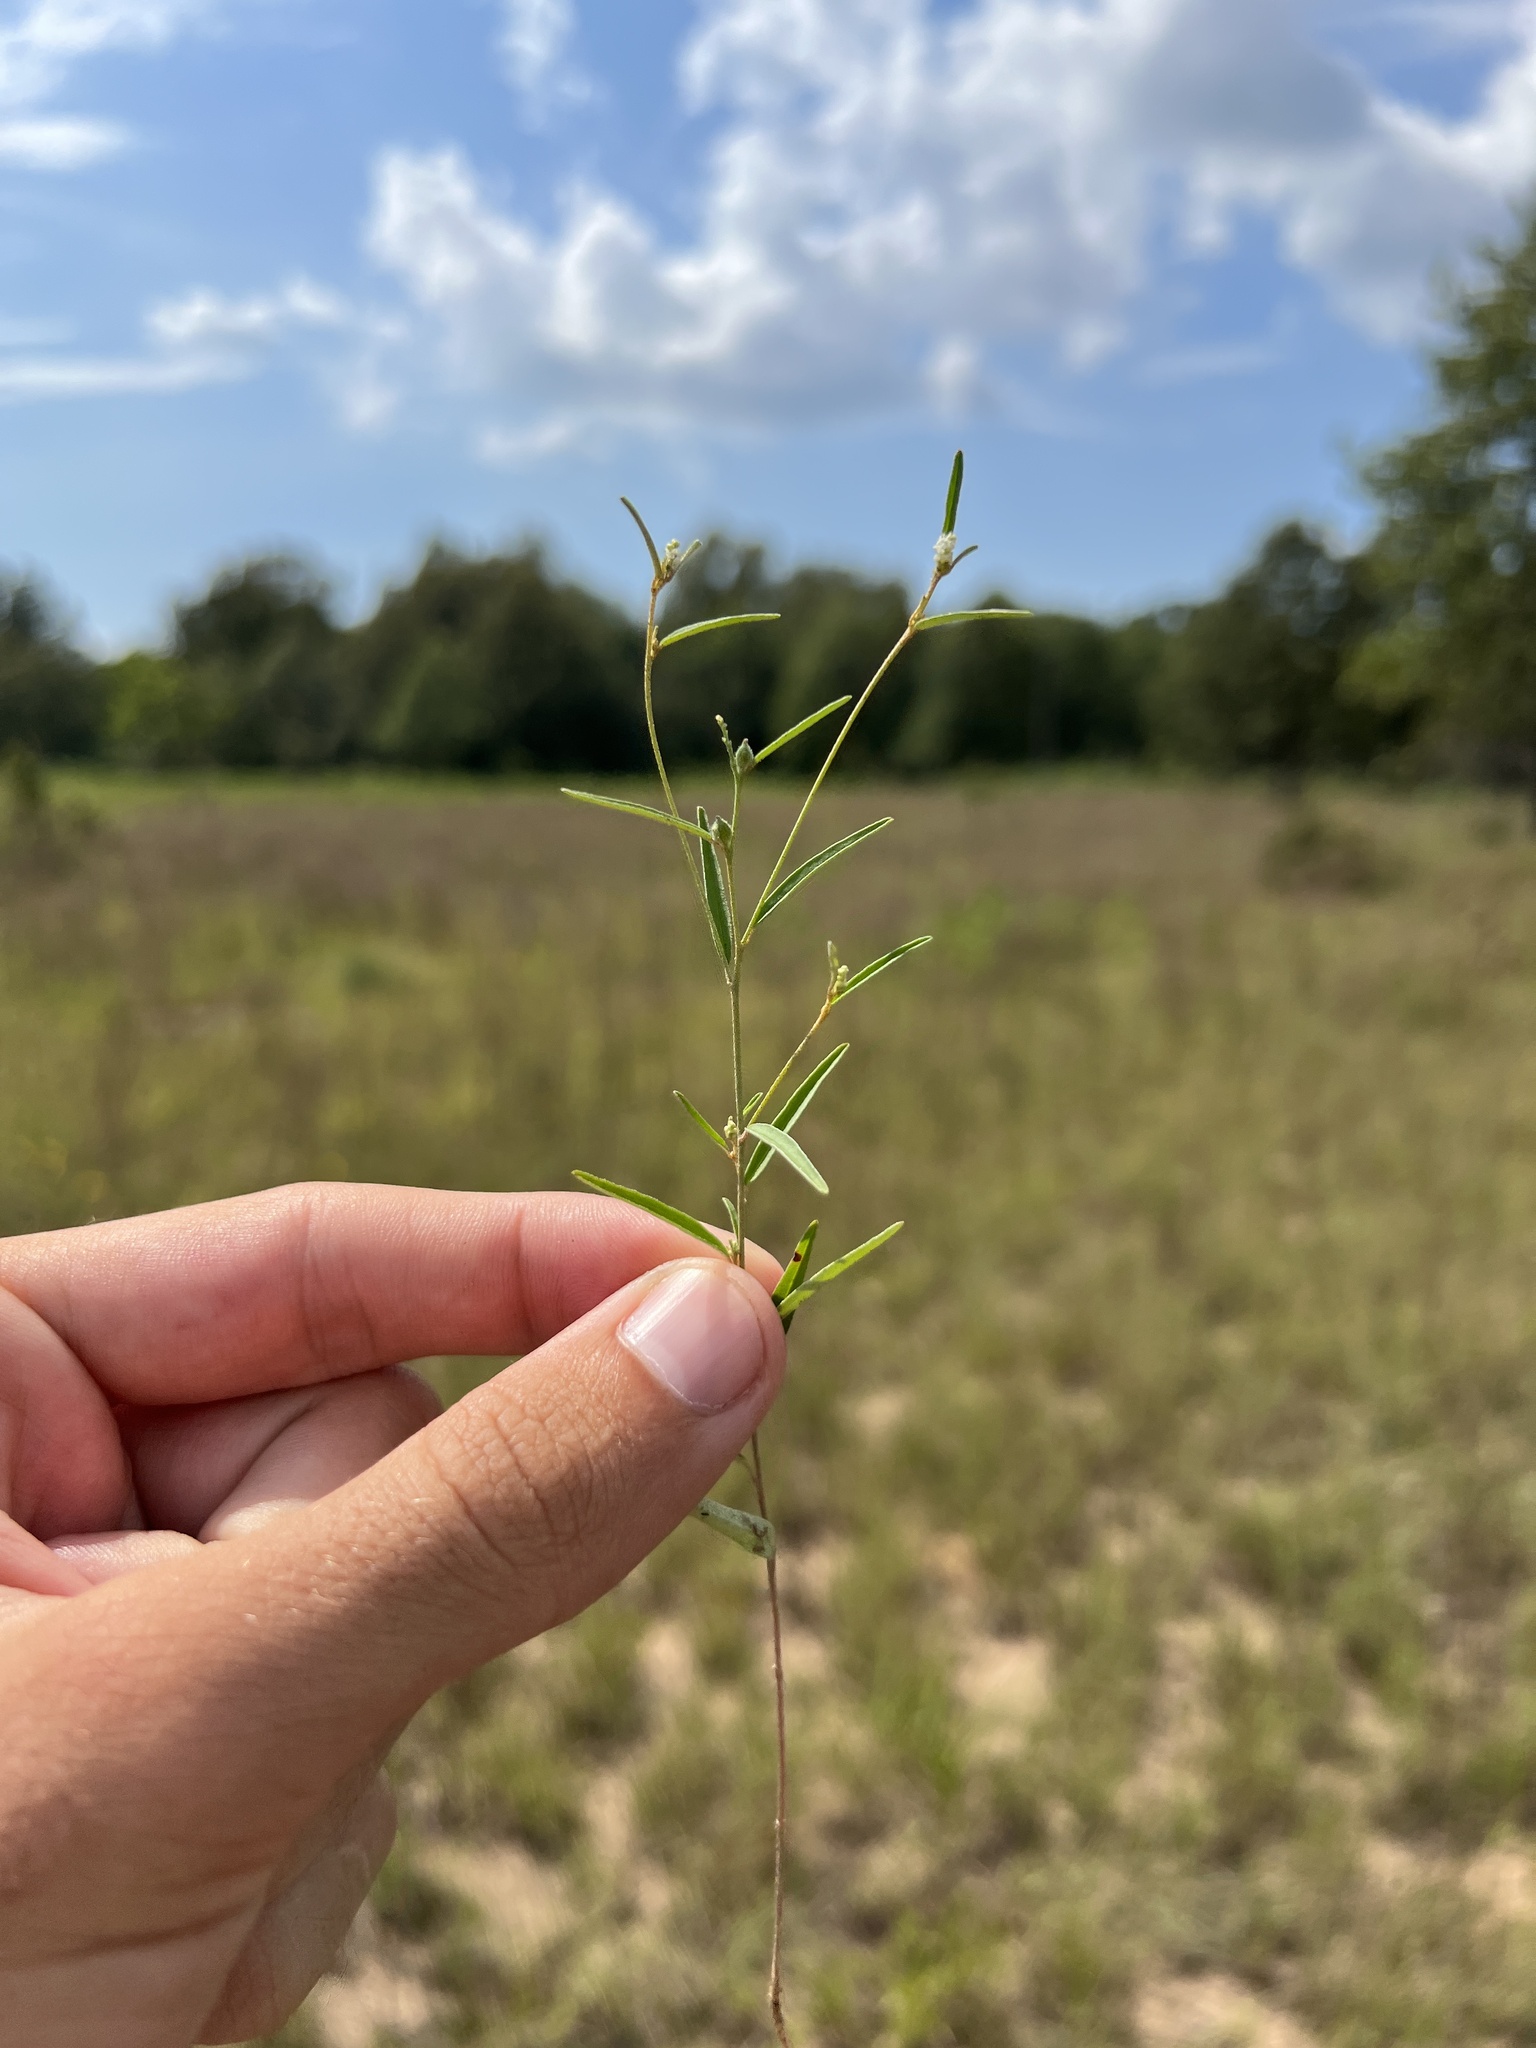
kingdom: Plantae
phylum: Tracheophyta
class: Magnoliopsida
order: Malpighiales
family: Euphorbiaceae
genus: Croton
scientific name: Croton michauxii
